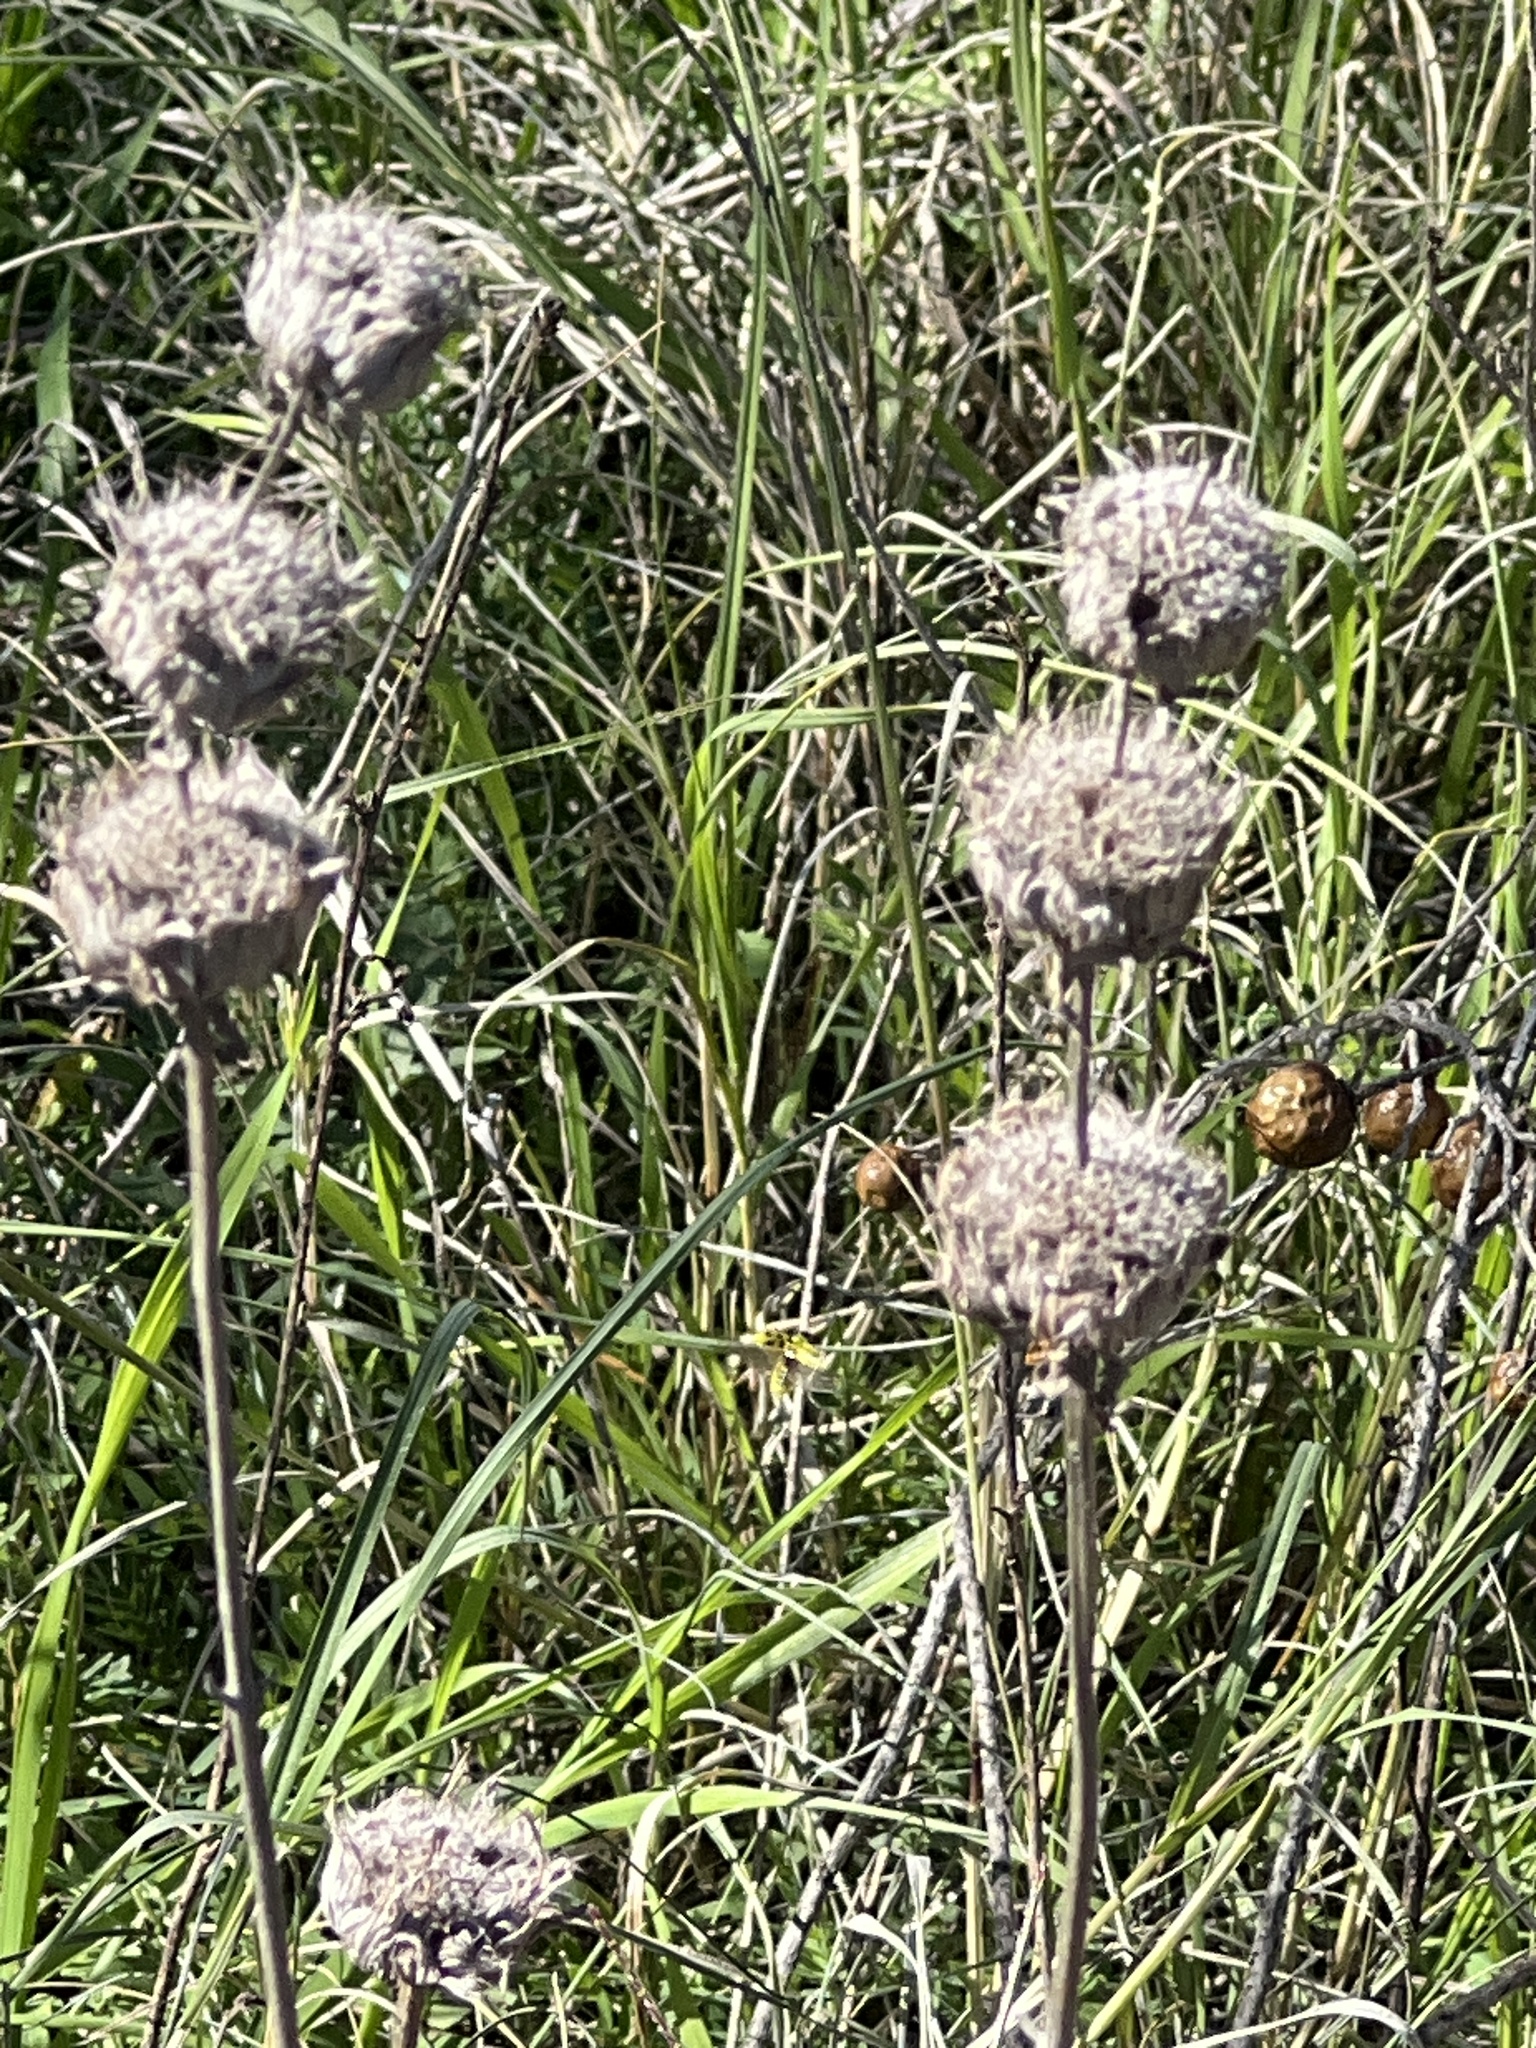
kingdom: Plantae
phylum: Tracheophyta
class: Magnoliopsida
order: Lamiales
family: Lamiaceae
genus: Monarda
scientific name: Monarda citriodora
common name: Lemon beebalm
